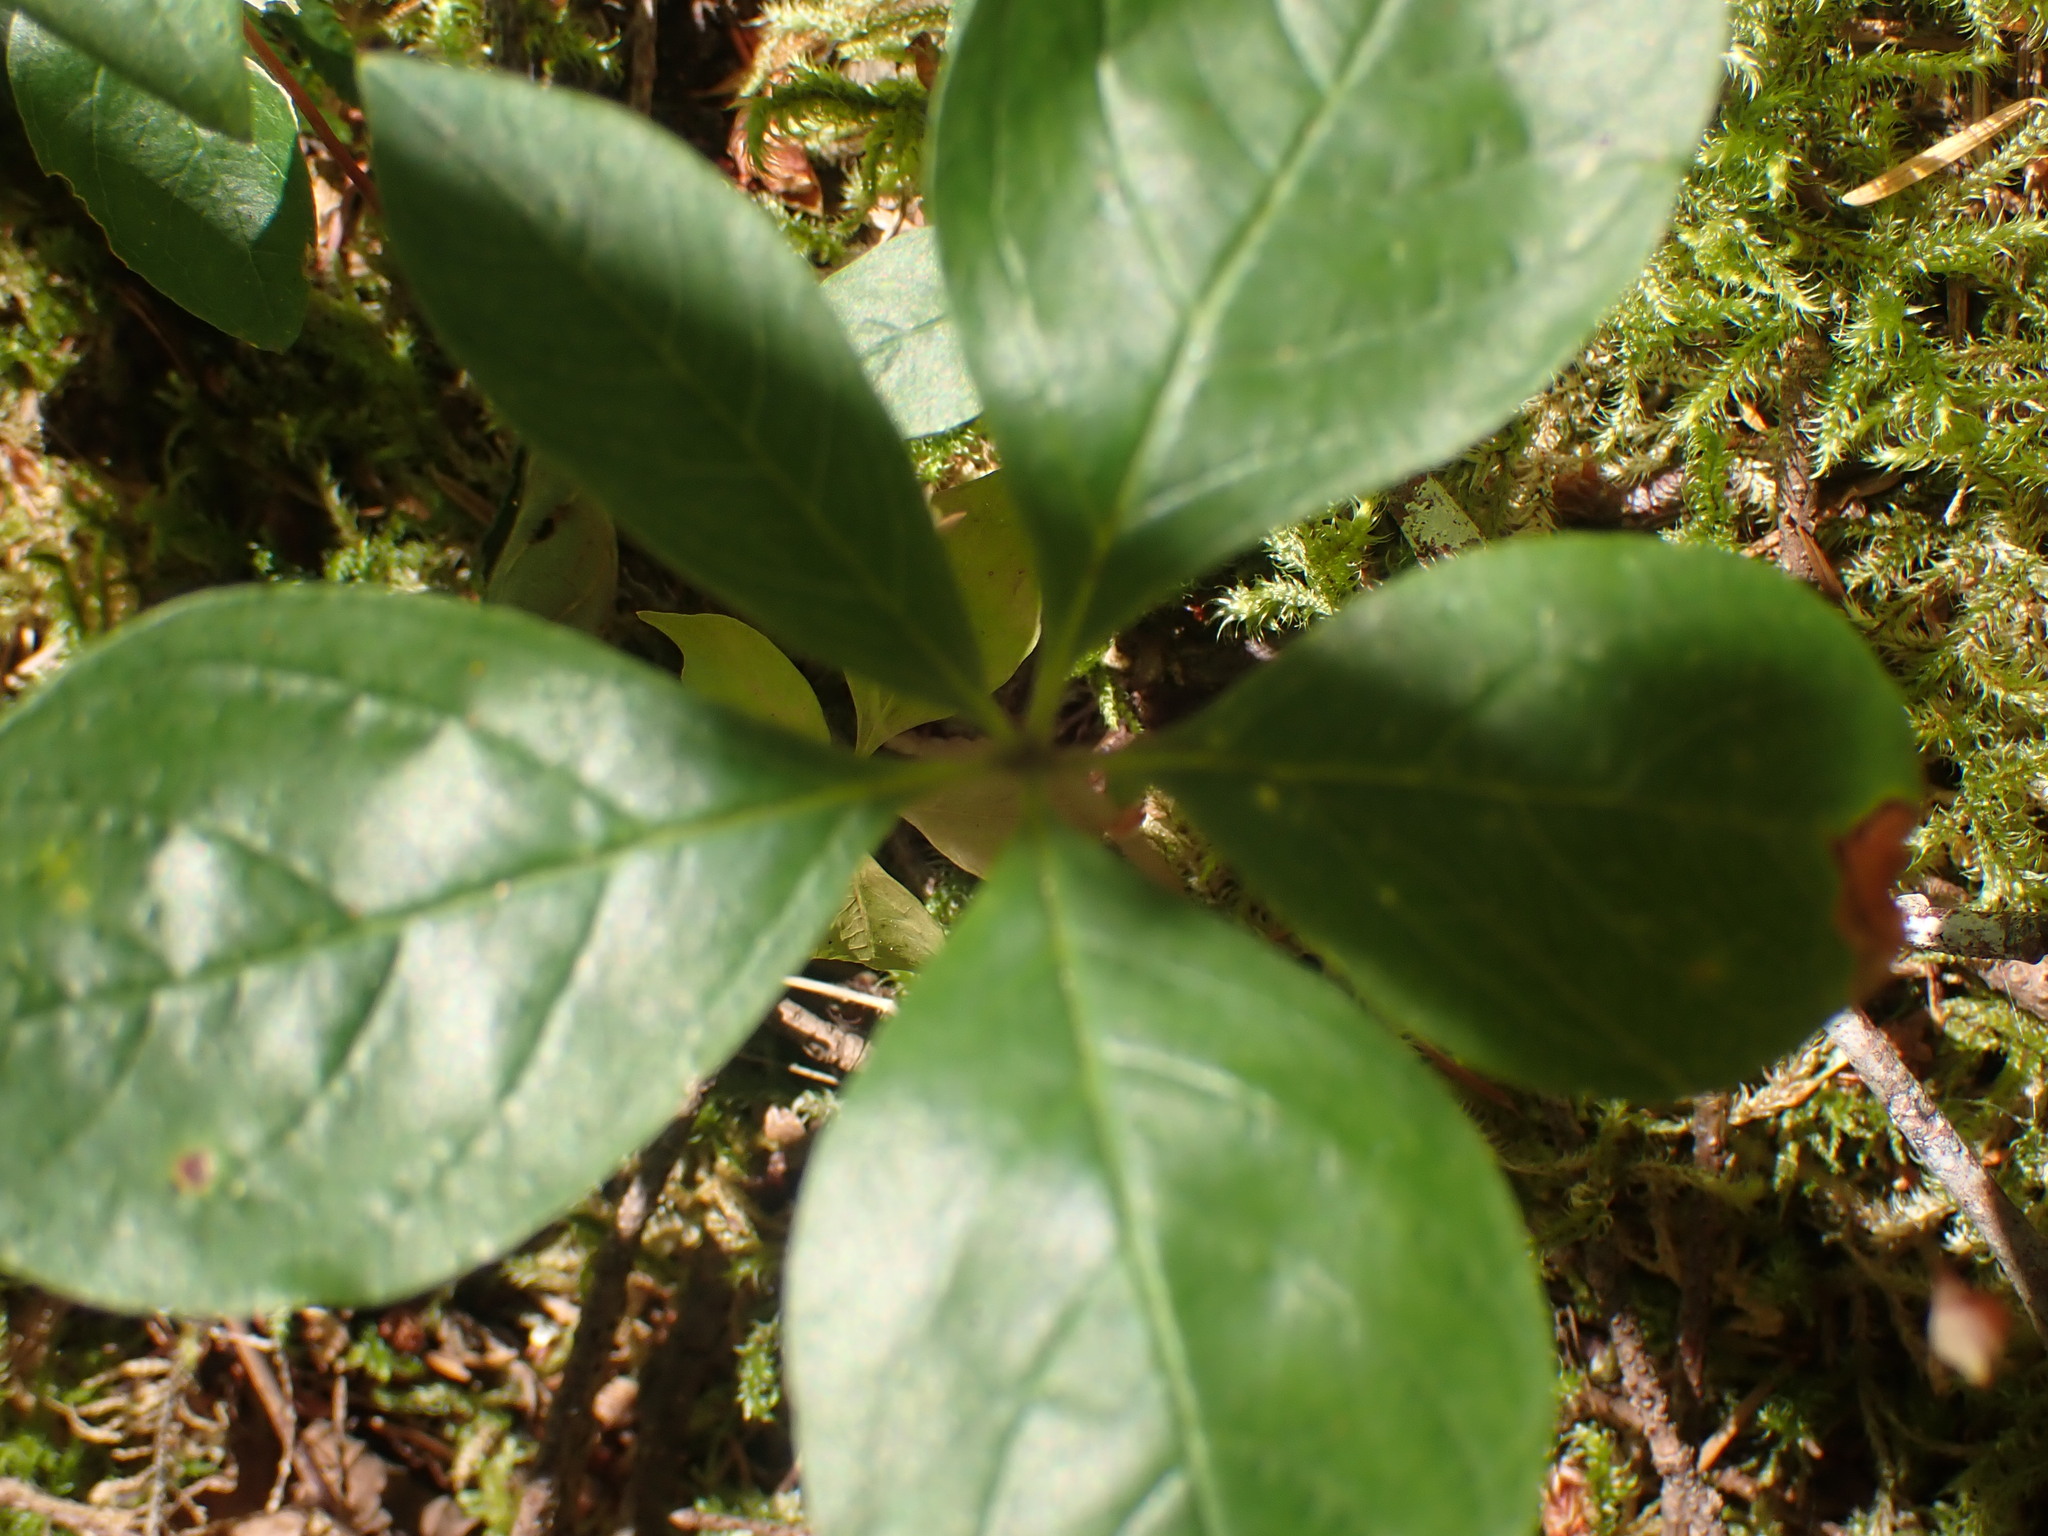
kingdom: Plantae
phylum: Tracheophyta
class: Magnoliopsida
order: Ericales
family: Primulaceae
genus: Lysimachia
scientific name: Lysimachia latifolia
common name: Pacific starflower
